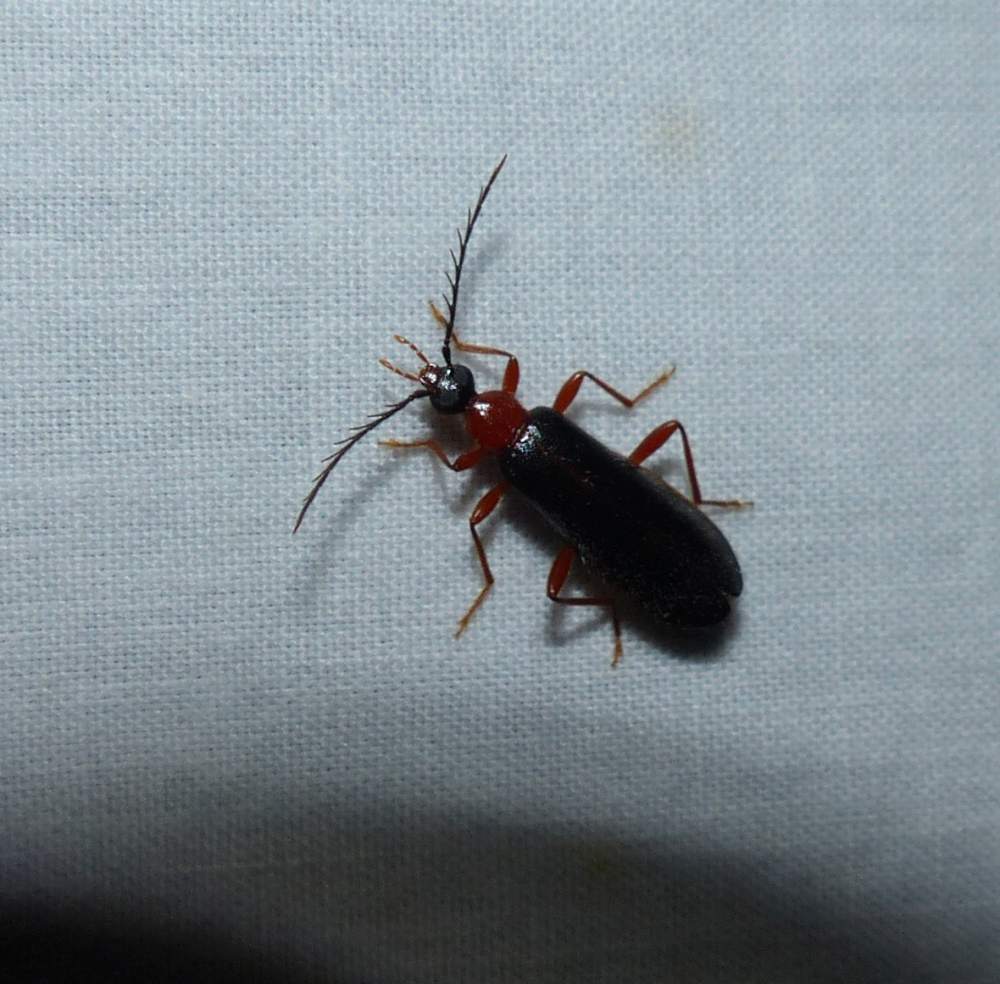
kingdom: Animalia
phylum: Arthropoda
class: Insecta
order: Coleoptera
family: Pyrochroidae
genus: Dendroides
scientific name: Dendroides canadensis
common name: Canada fire-colored beetle
